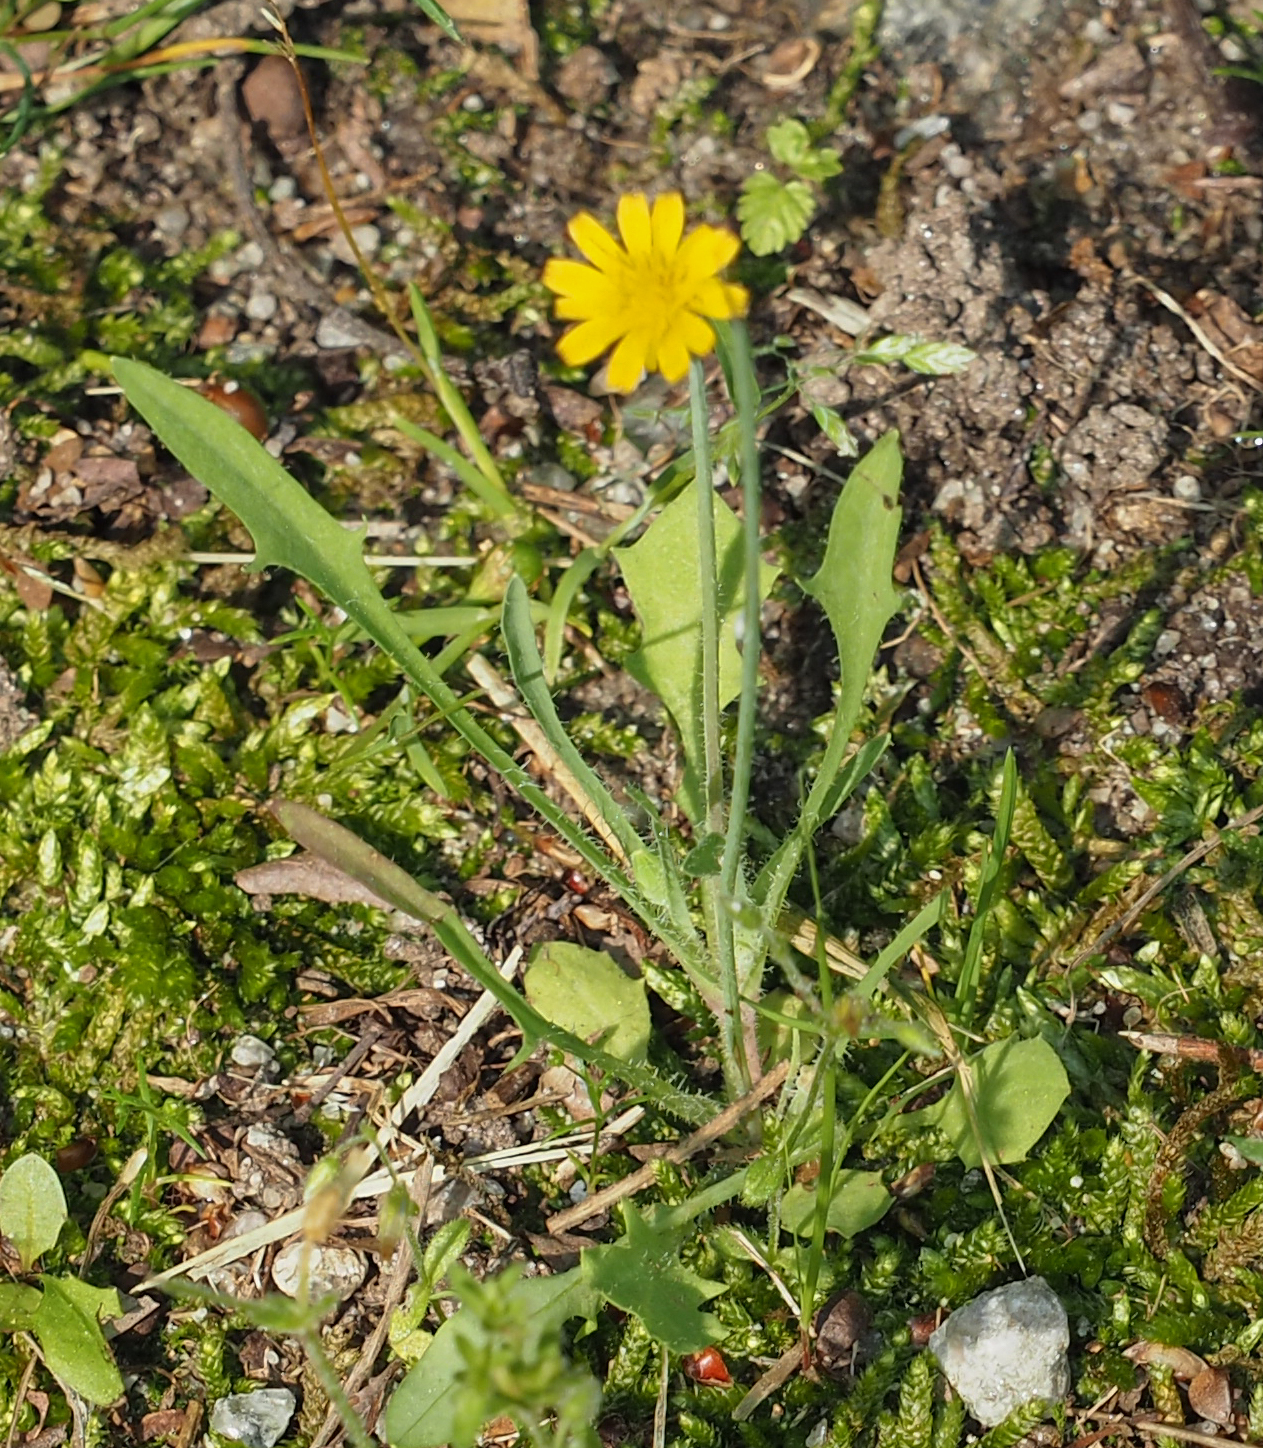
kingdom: Plantae
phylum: Tracheophyta
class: Magnoliopsida
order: Asterales
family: Asteraceae
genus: Krigia
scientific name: Krigia virginica
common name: Virginia dwarf-dandelion
